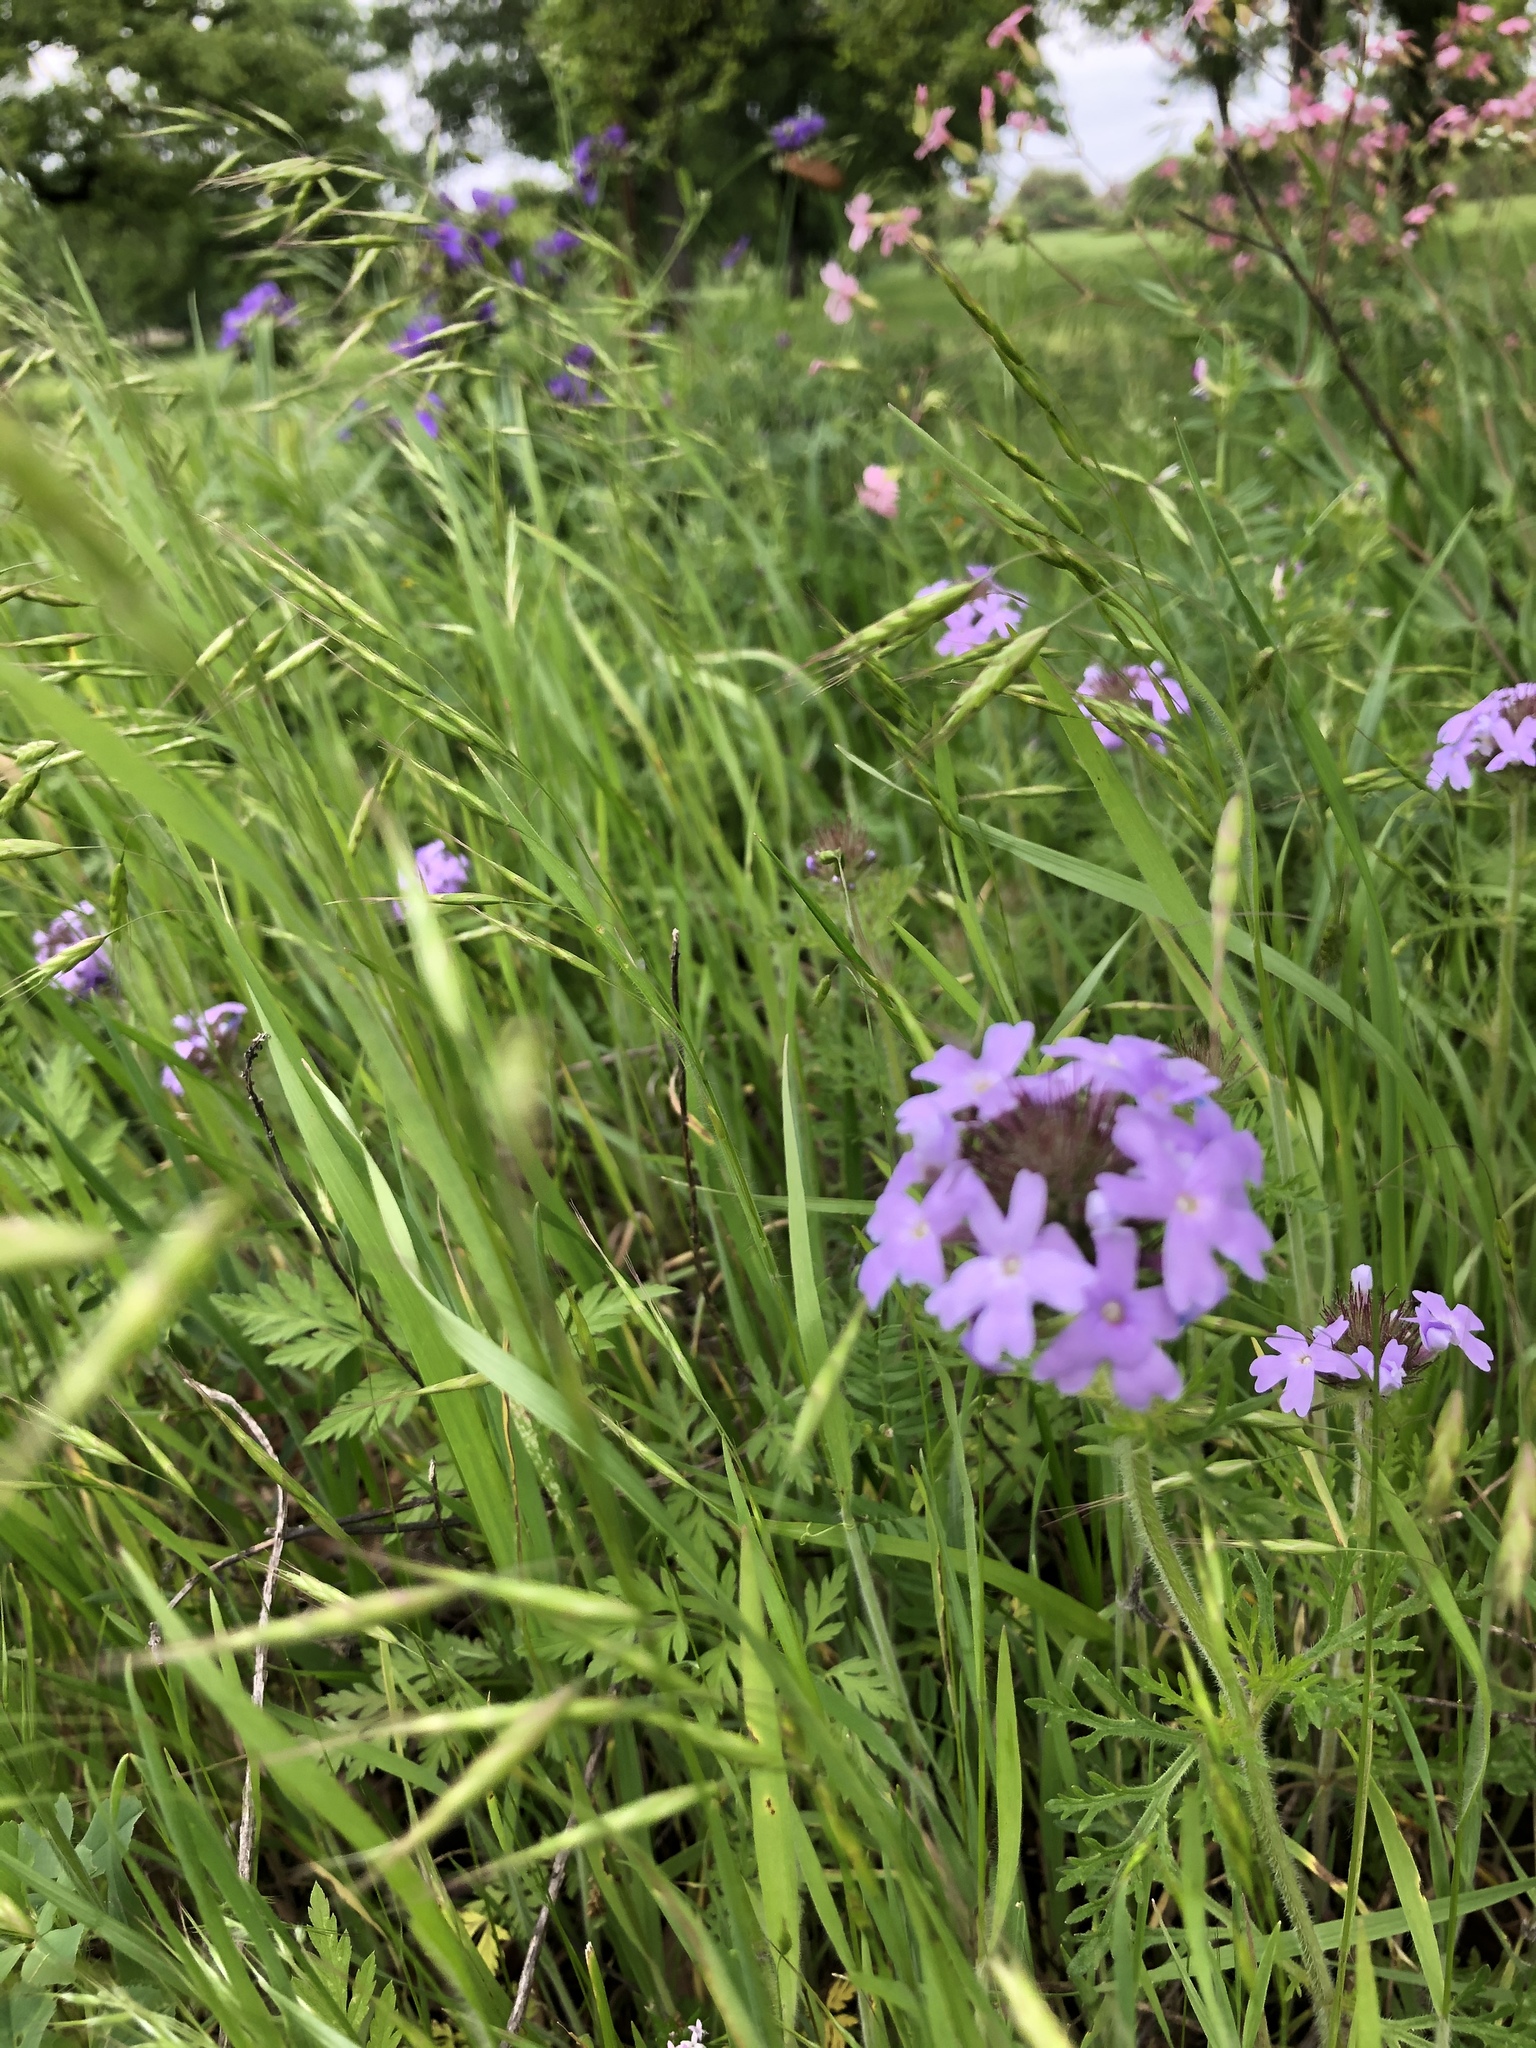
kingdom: Plantae
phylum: Tracheophyta
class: Magnoliopsida
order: Lamiales
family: Verbenaceae
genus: Verbena
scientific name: Verbena bipinnatifida
